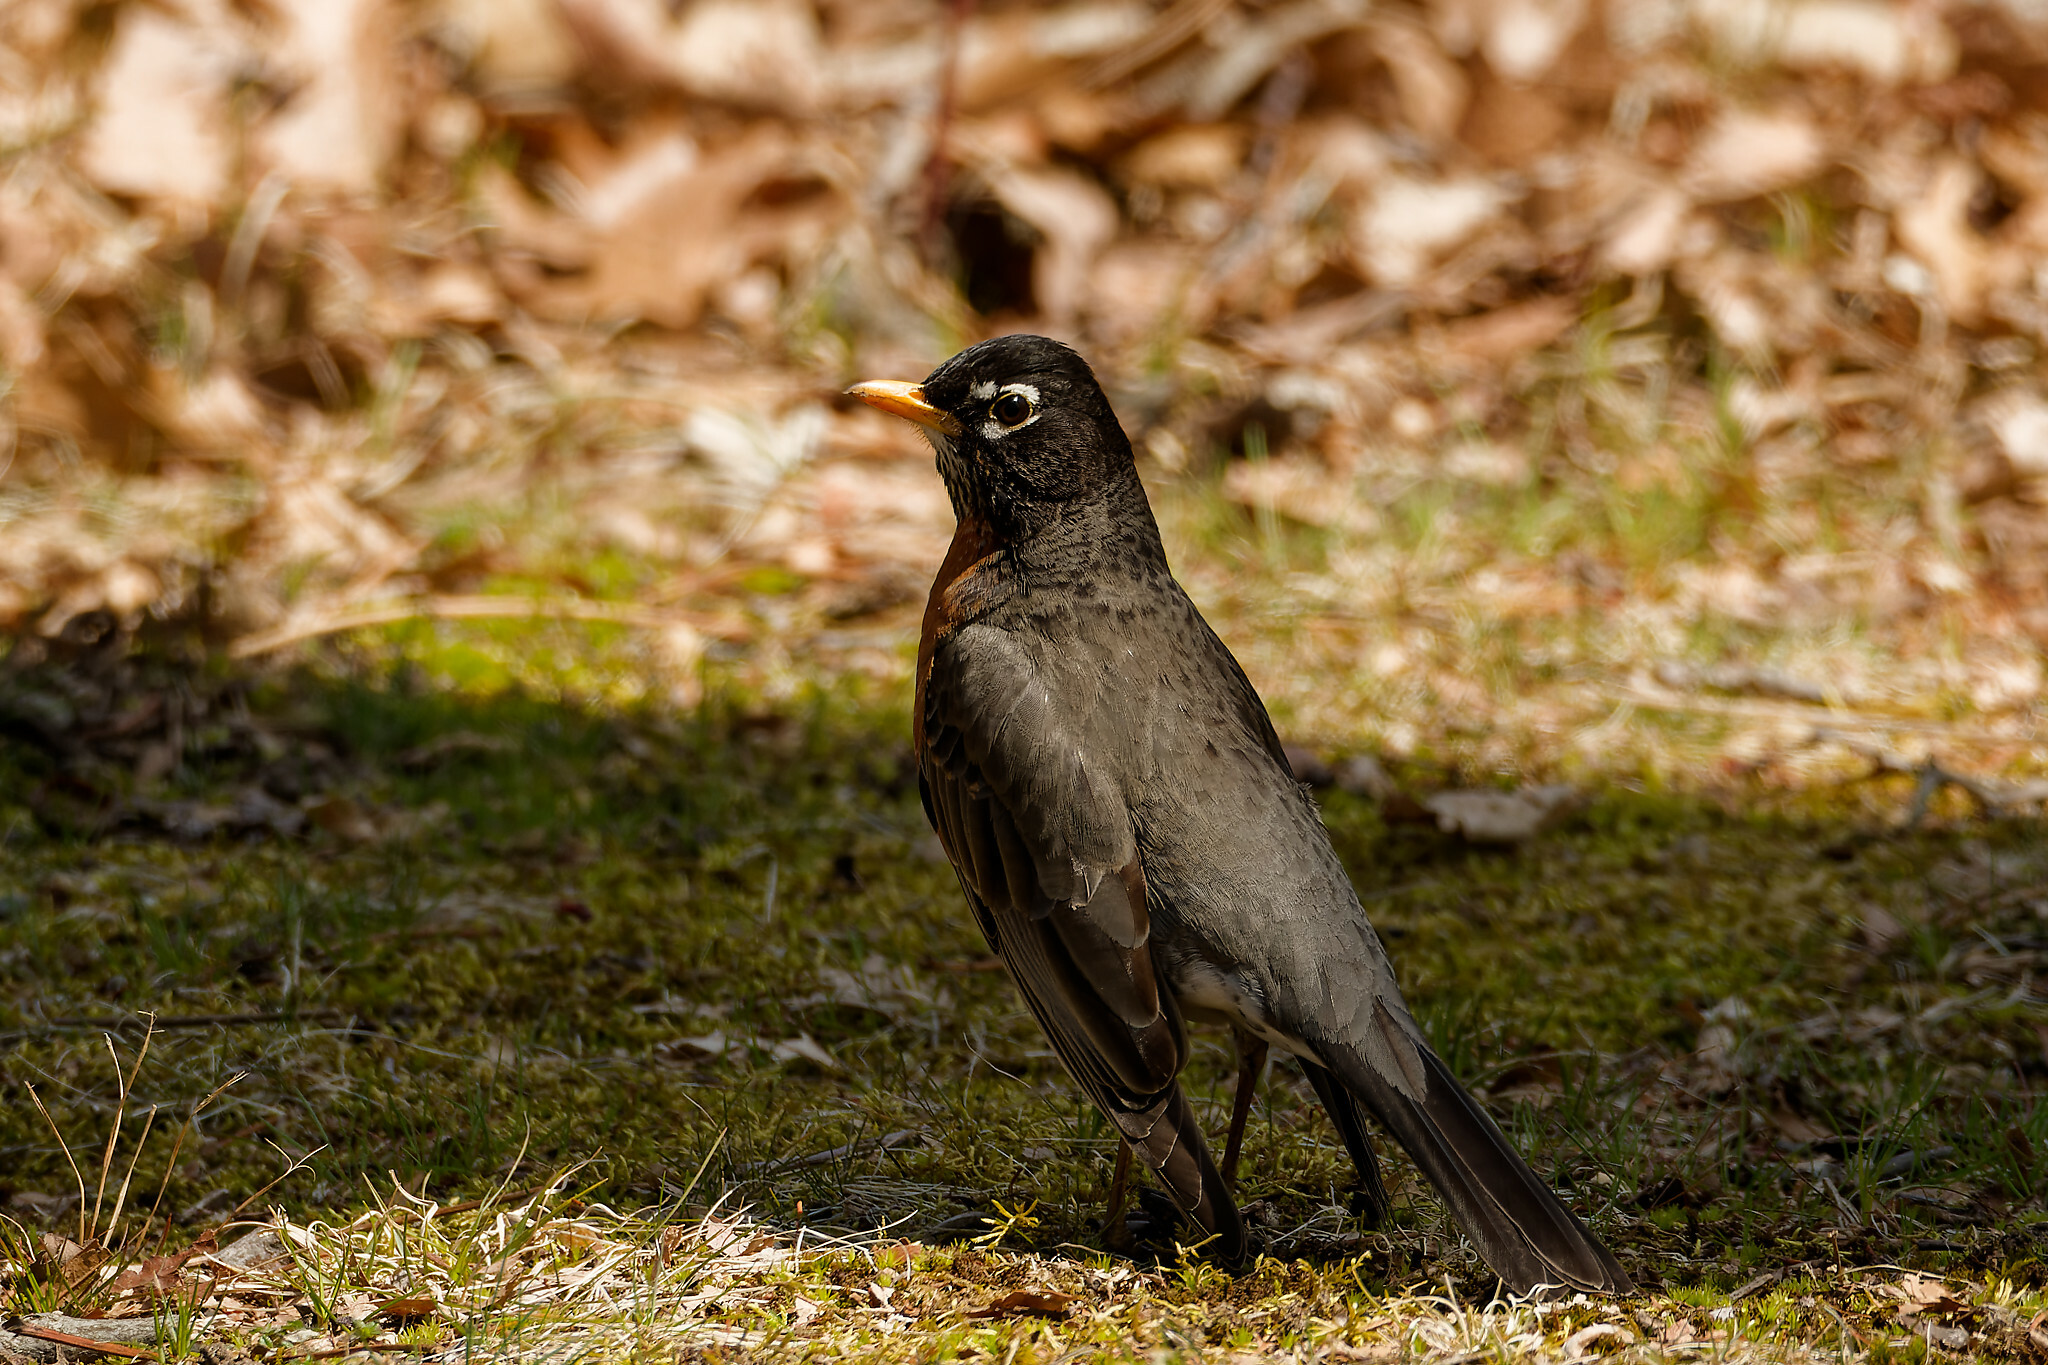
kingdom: Animalia
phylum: Chordata
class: Aves
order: Passeriformes
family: Turdidae
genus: Turdus
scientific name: Turdus migratorius
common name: American robin
